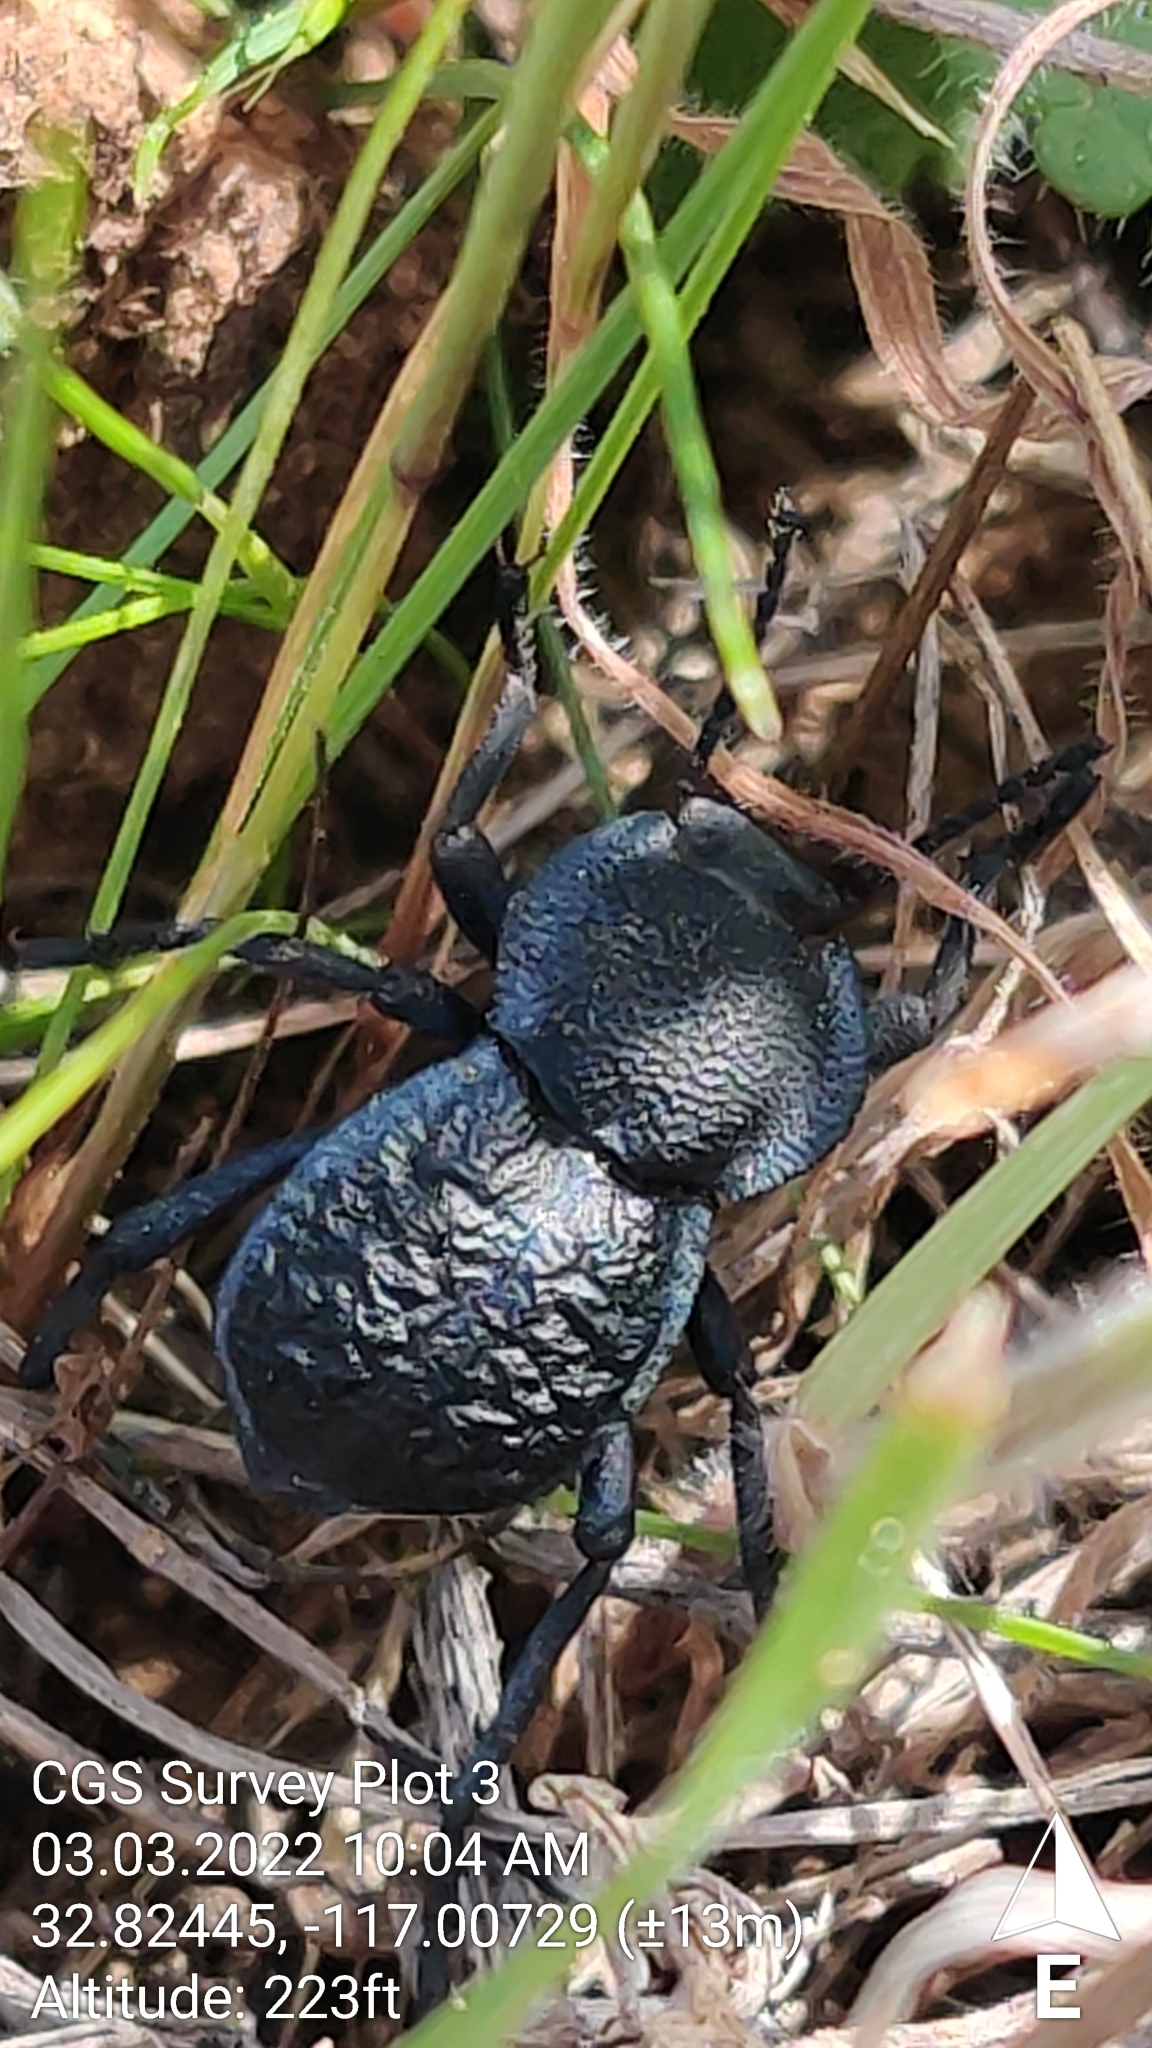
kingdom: Animalia
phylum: Arthropoda
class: Insecta
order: Coleoptera
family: Tenebrionidae
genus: Microschatia
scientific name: Microschatia inaequalis
